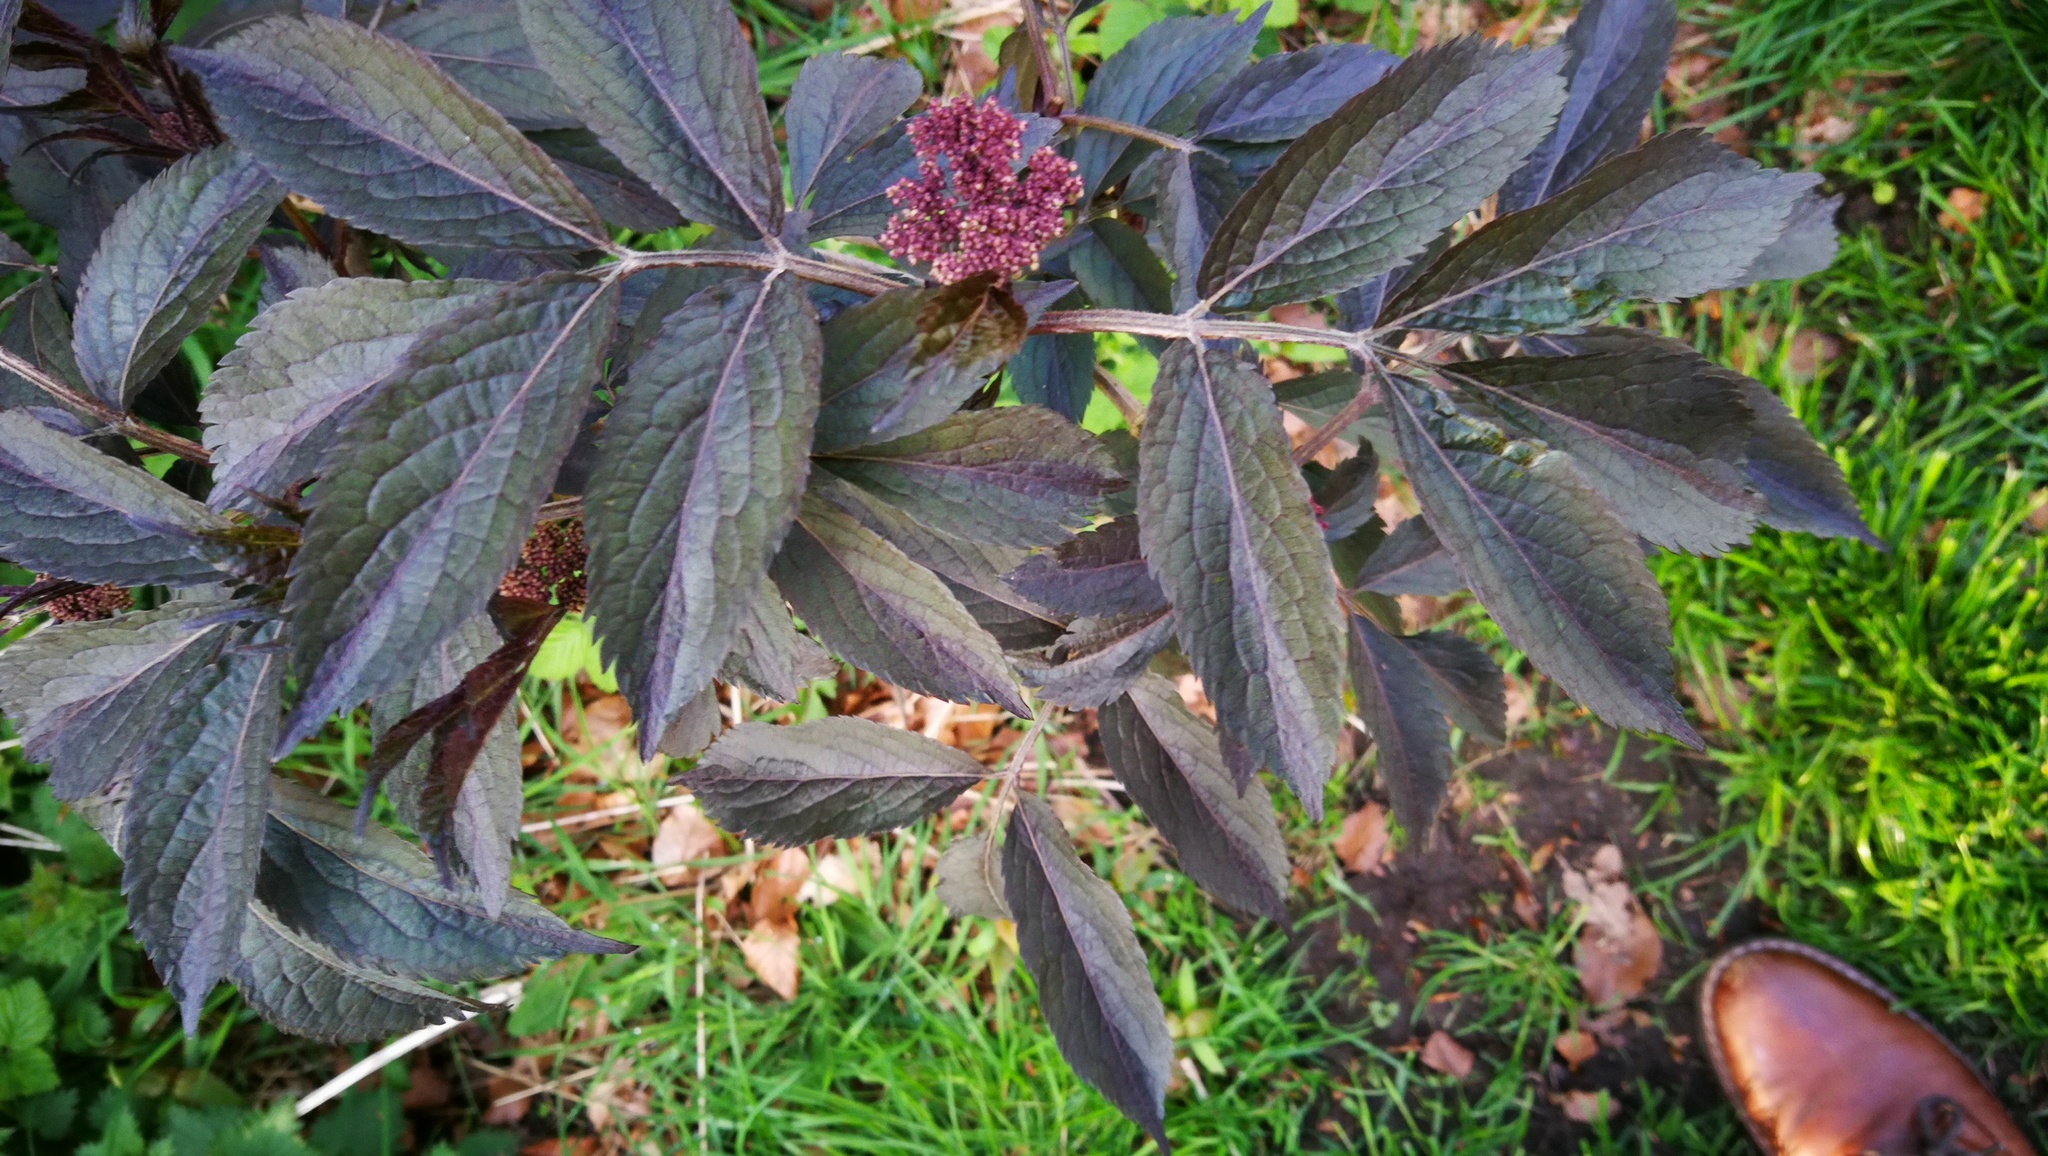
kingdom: Plantae
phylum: Tracheophyta
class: Magnoliopsida
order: Dipsacales
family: Viburnaceae
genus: Sambucus
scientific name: Sambucus nigra
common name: Elder
